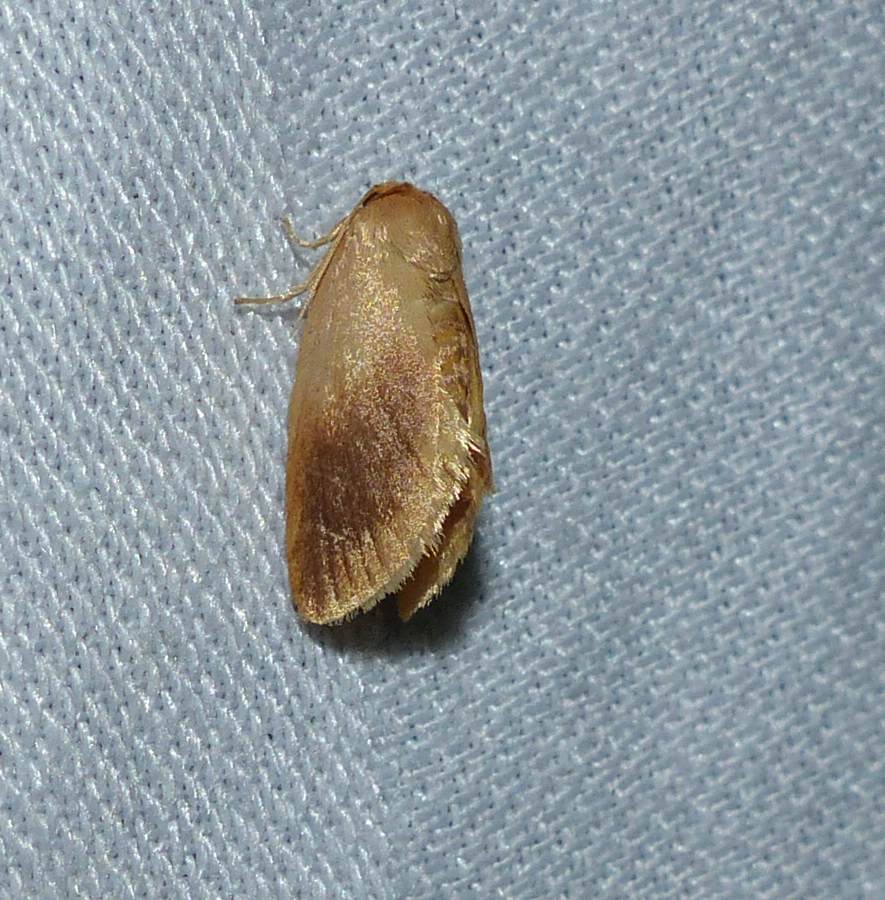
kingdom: Animalia
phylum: Arthropoda
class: Insecta
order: Lepidoptera
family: Limacodidae
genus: Tortricidia
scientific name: Tortricidia testacea
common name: Early button slug moth
